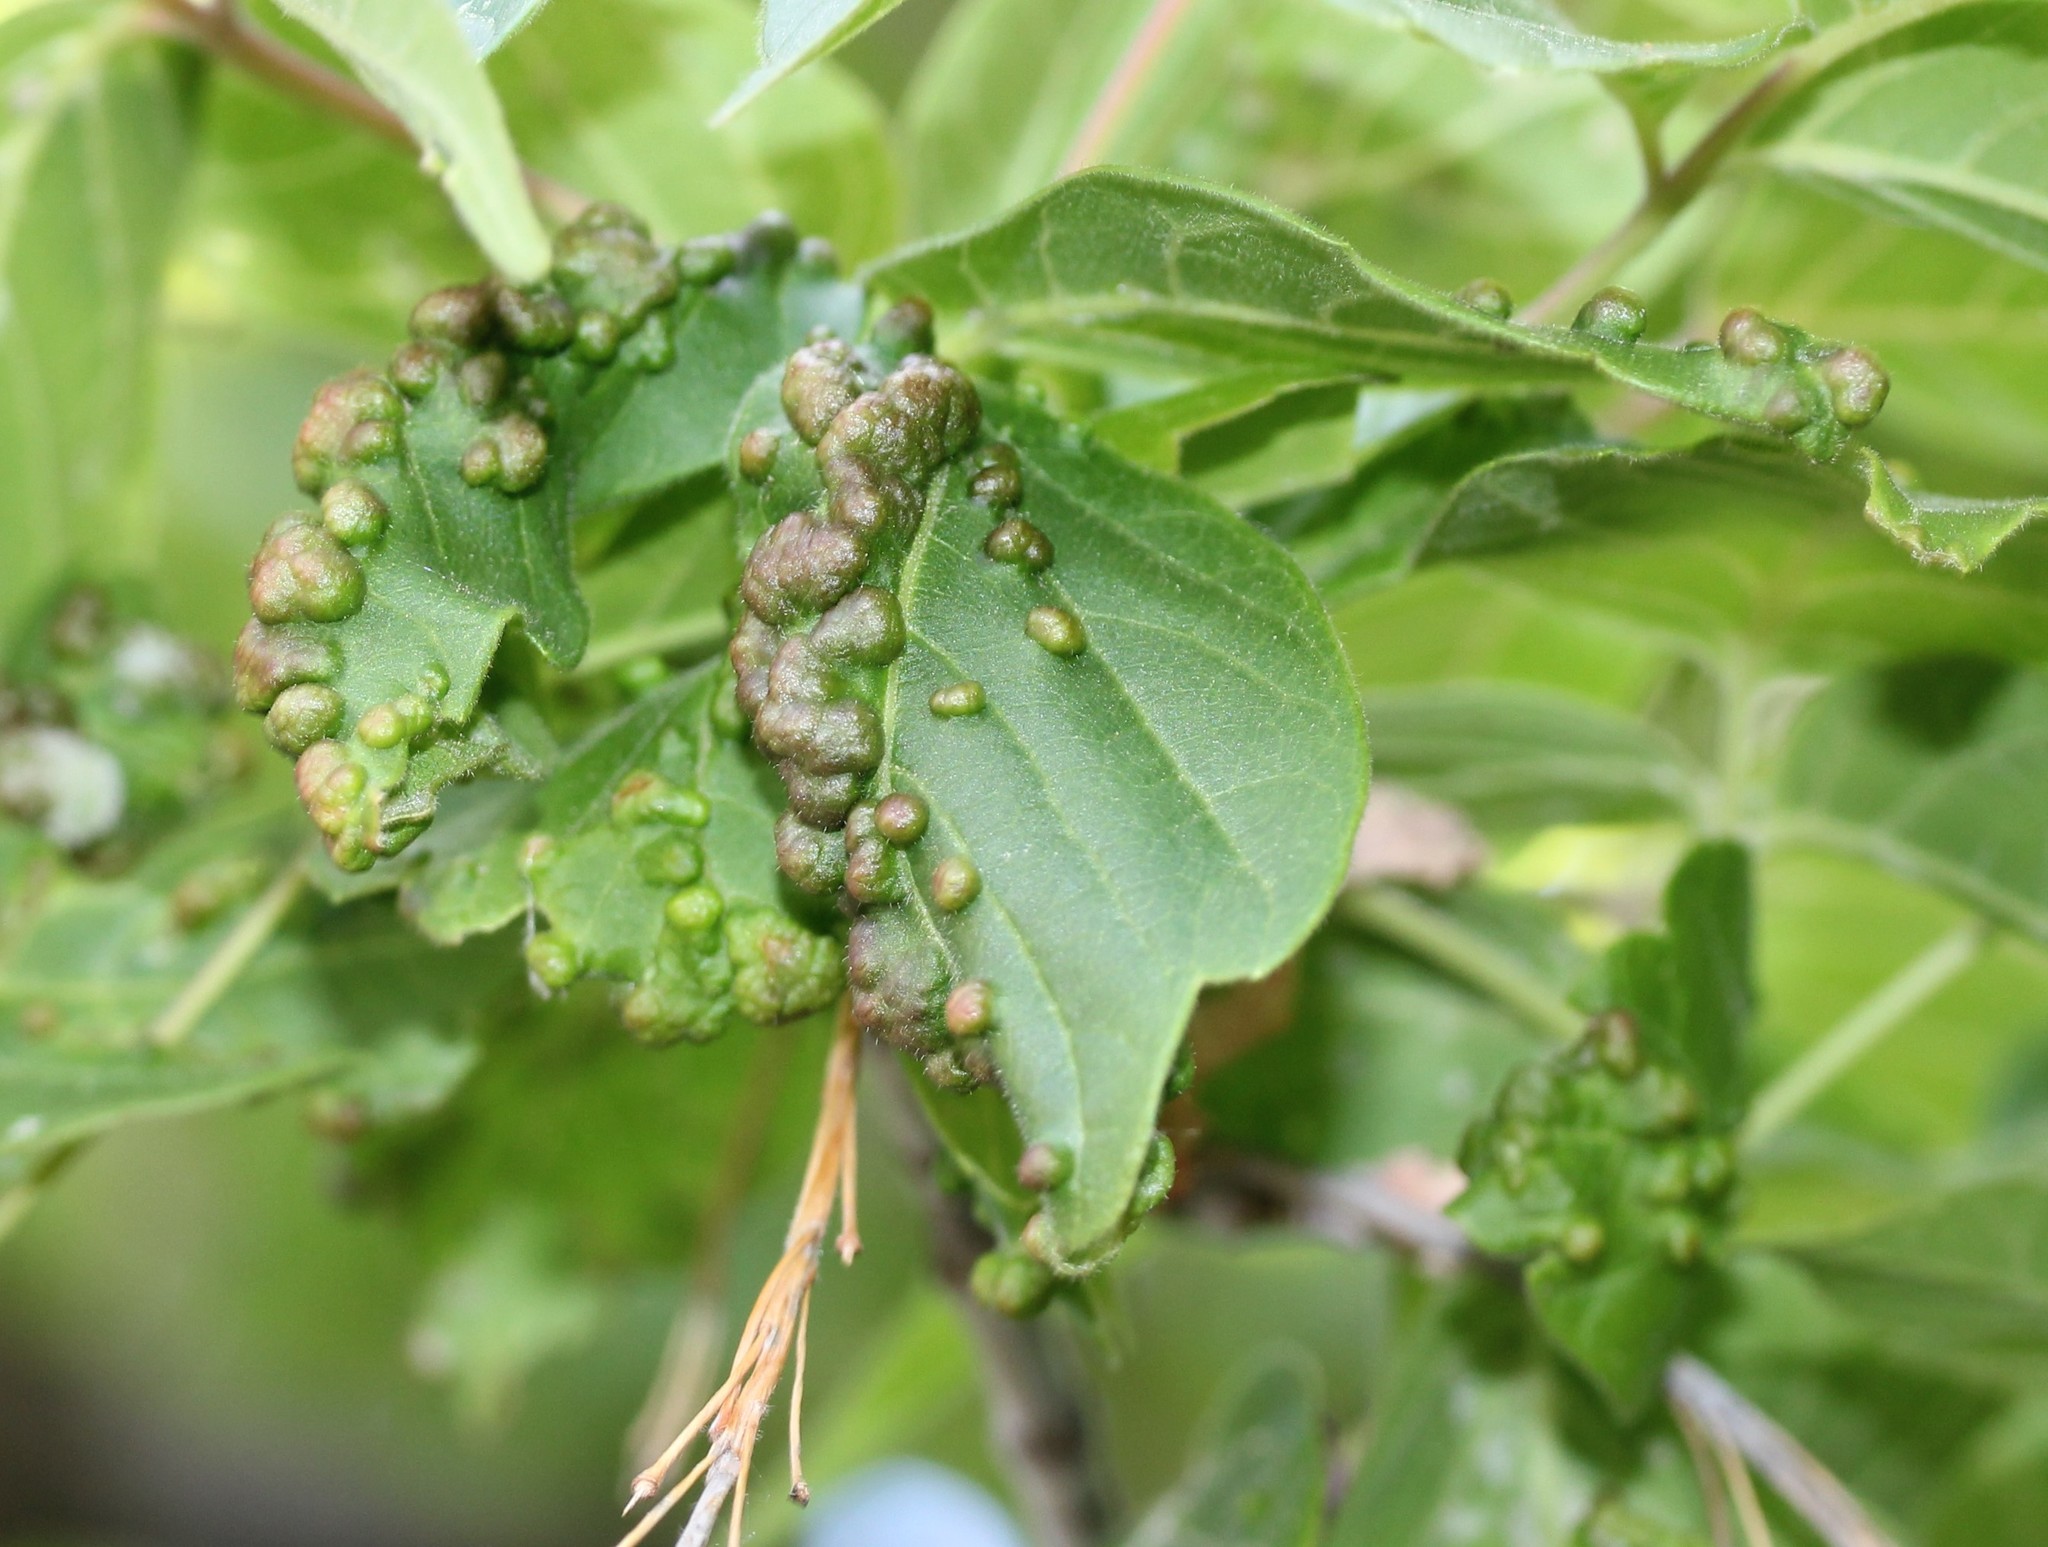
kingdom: Animalia
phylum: Arthropoda
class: Arachnida
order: Trombidiformes
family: Eriophyidae
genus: Aceria
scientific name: Aceria
